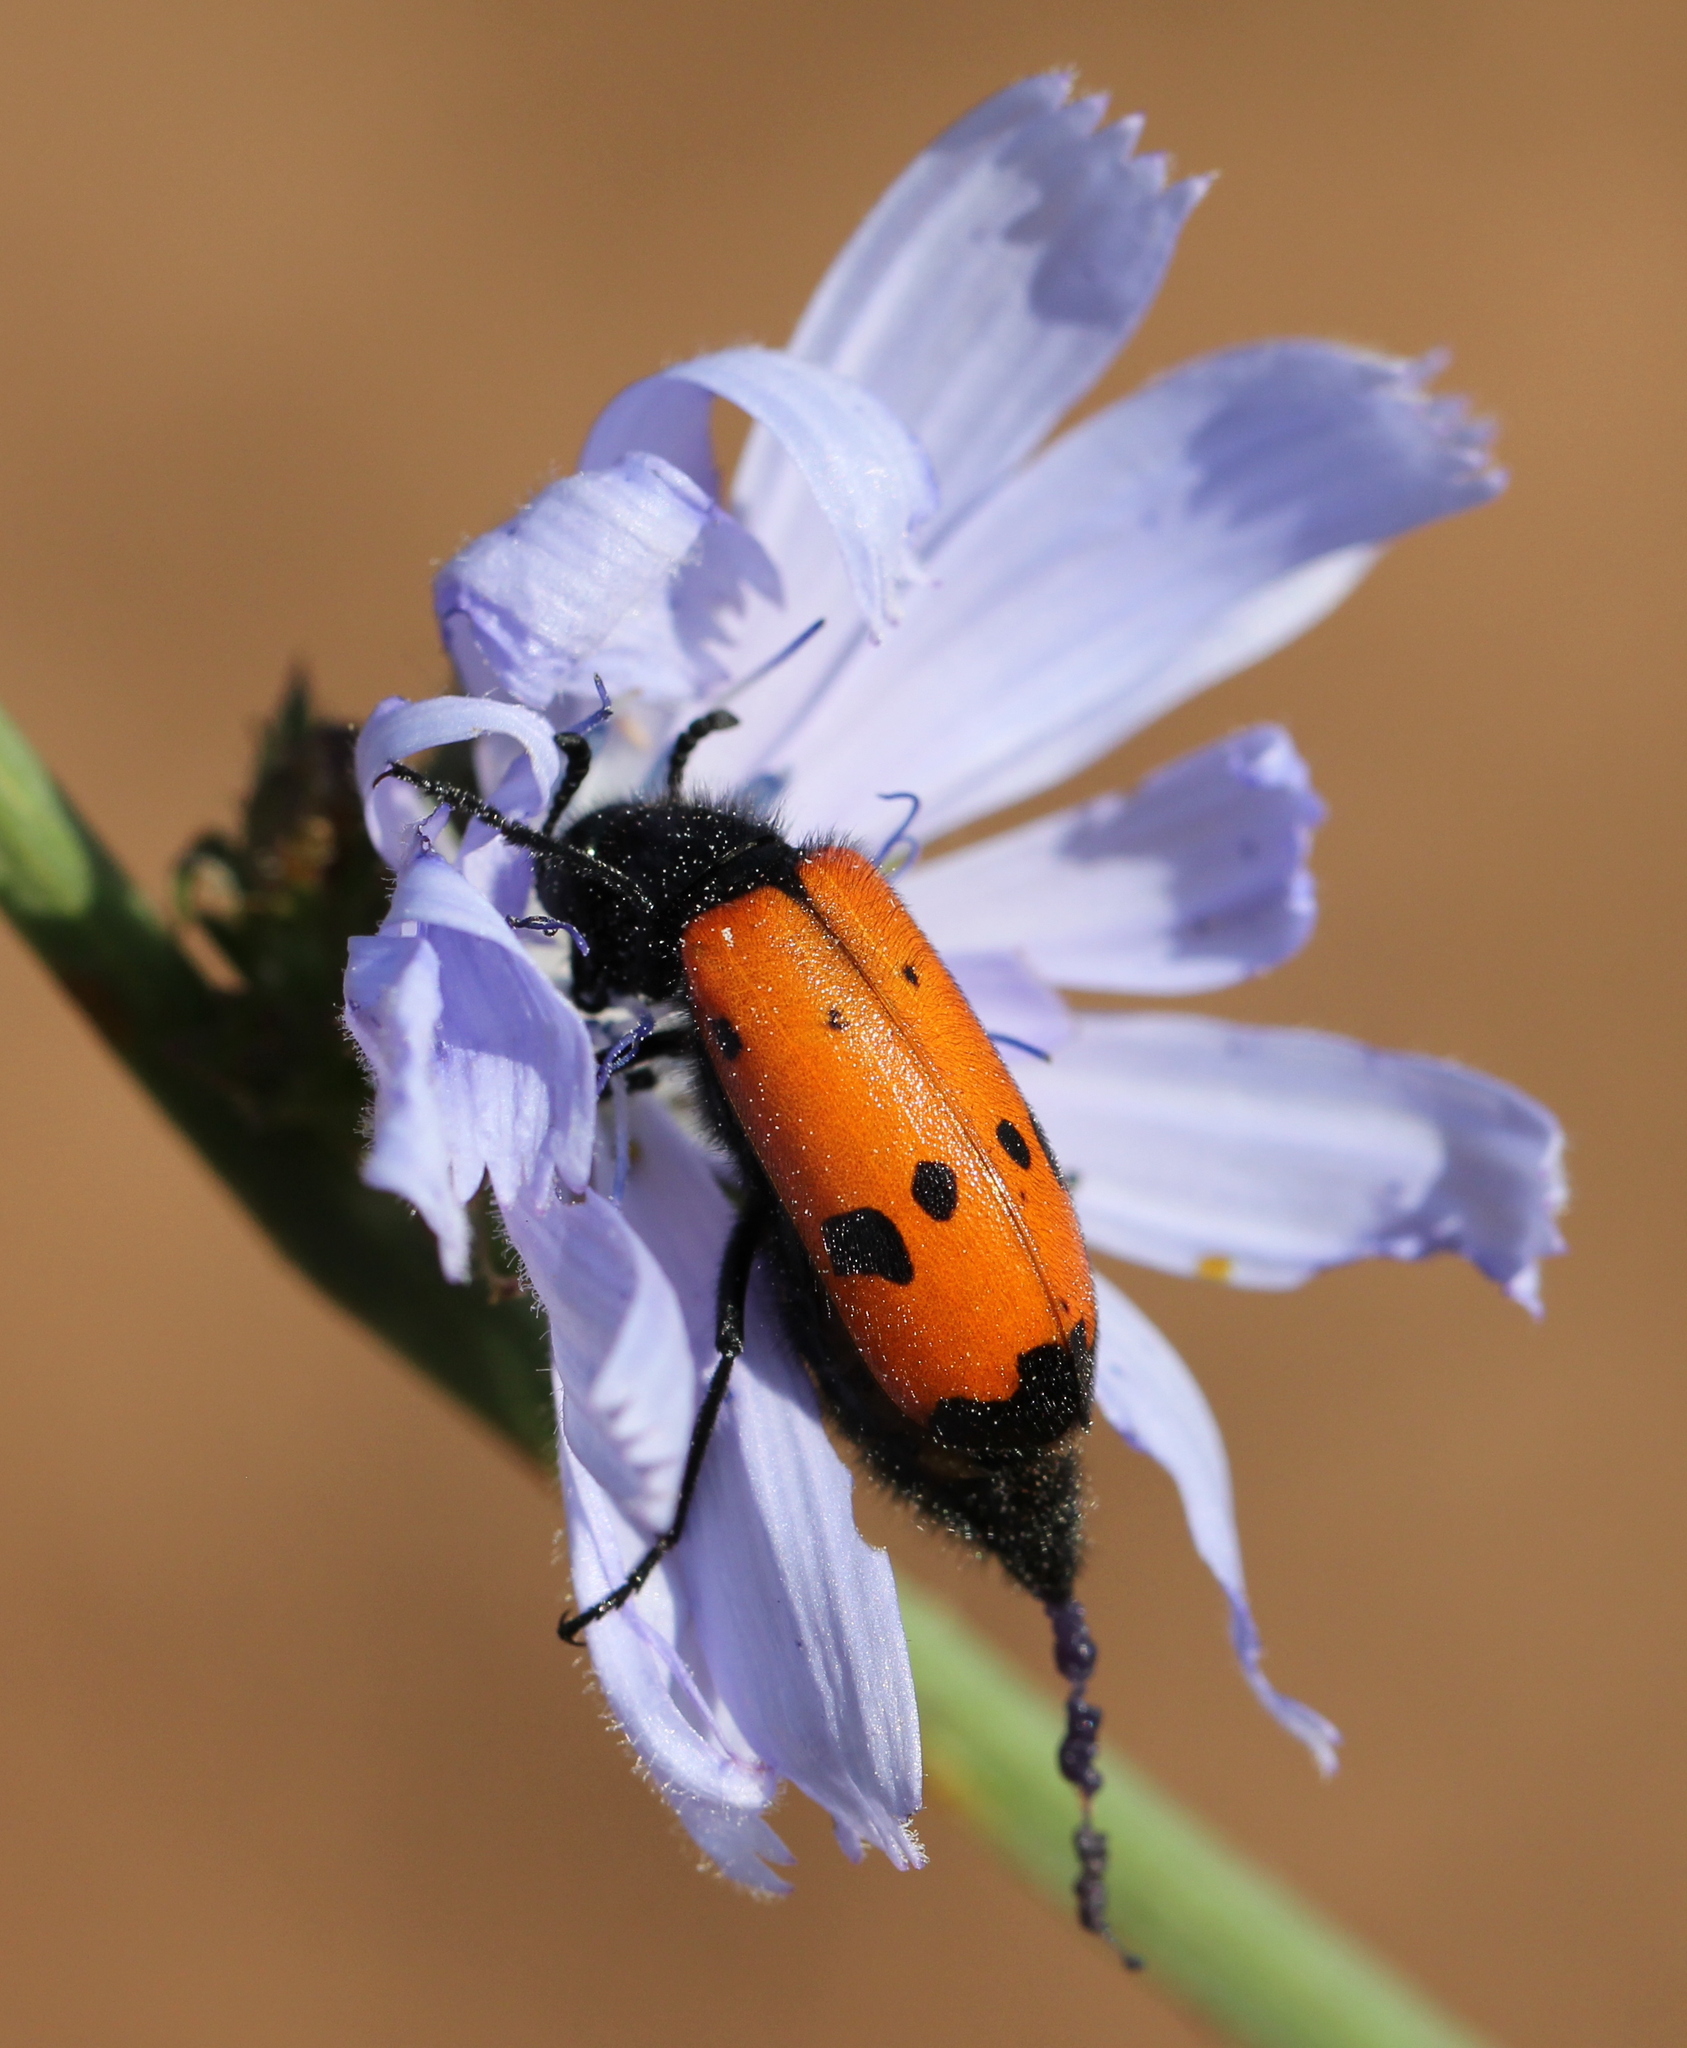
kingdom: Animalia
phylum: Arthropoda
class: Insecta
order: Coleoptera
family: Meloidae
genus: Mylabris
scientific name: Mylabris quadripunctata
